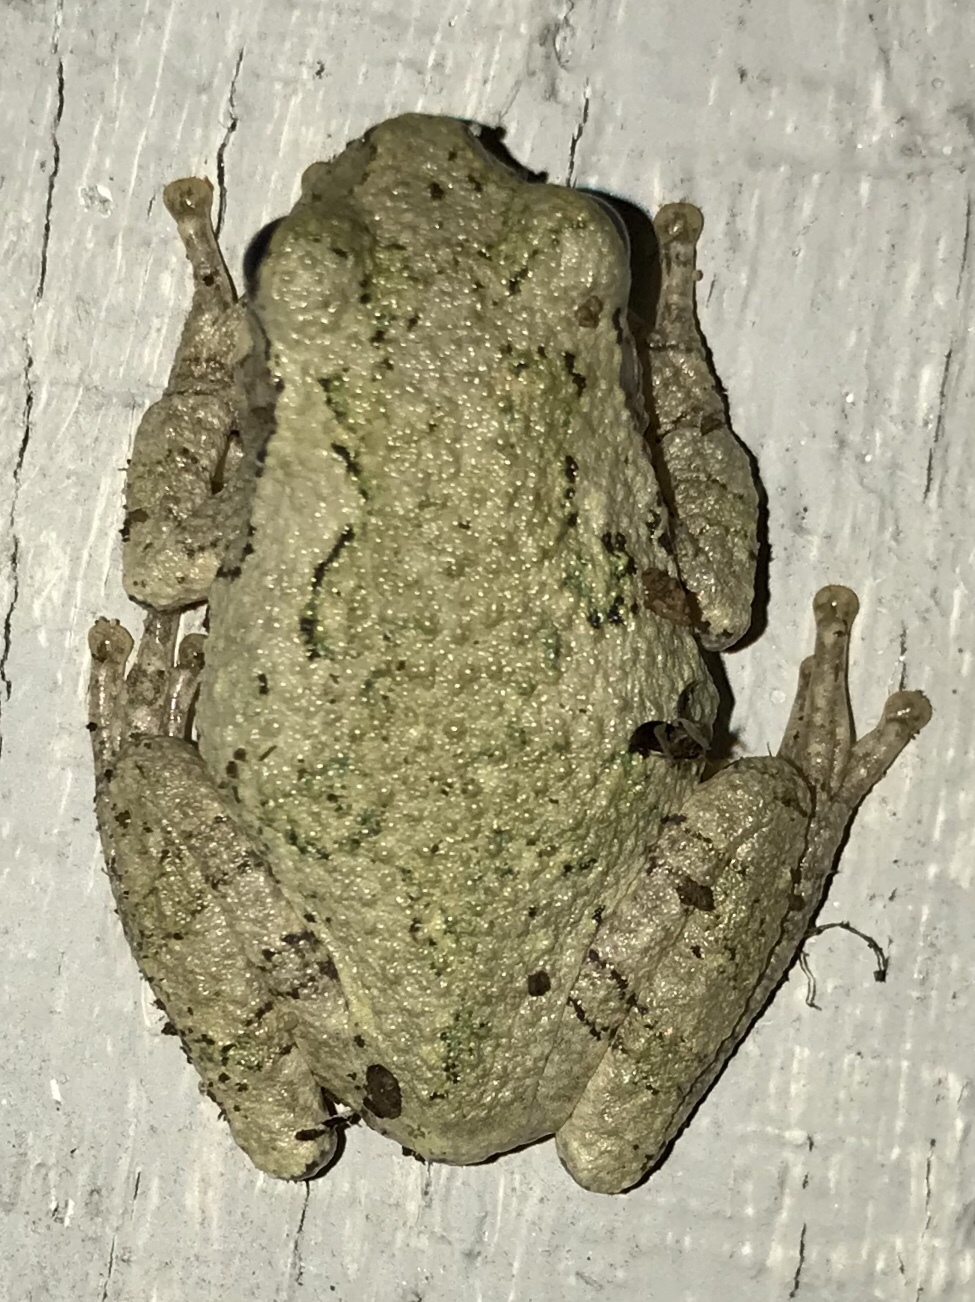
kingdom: Animalia
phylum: Chordata
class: Amphibia
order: Anura
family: Hylidae
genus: Hyla
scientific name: Hyla
